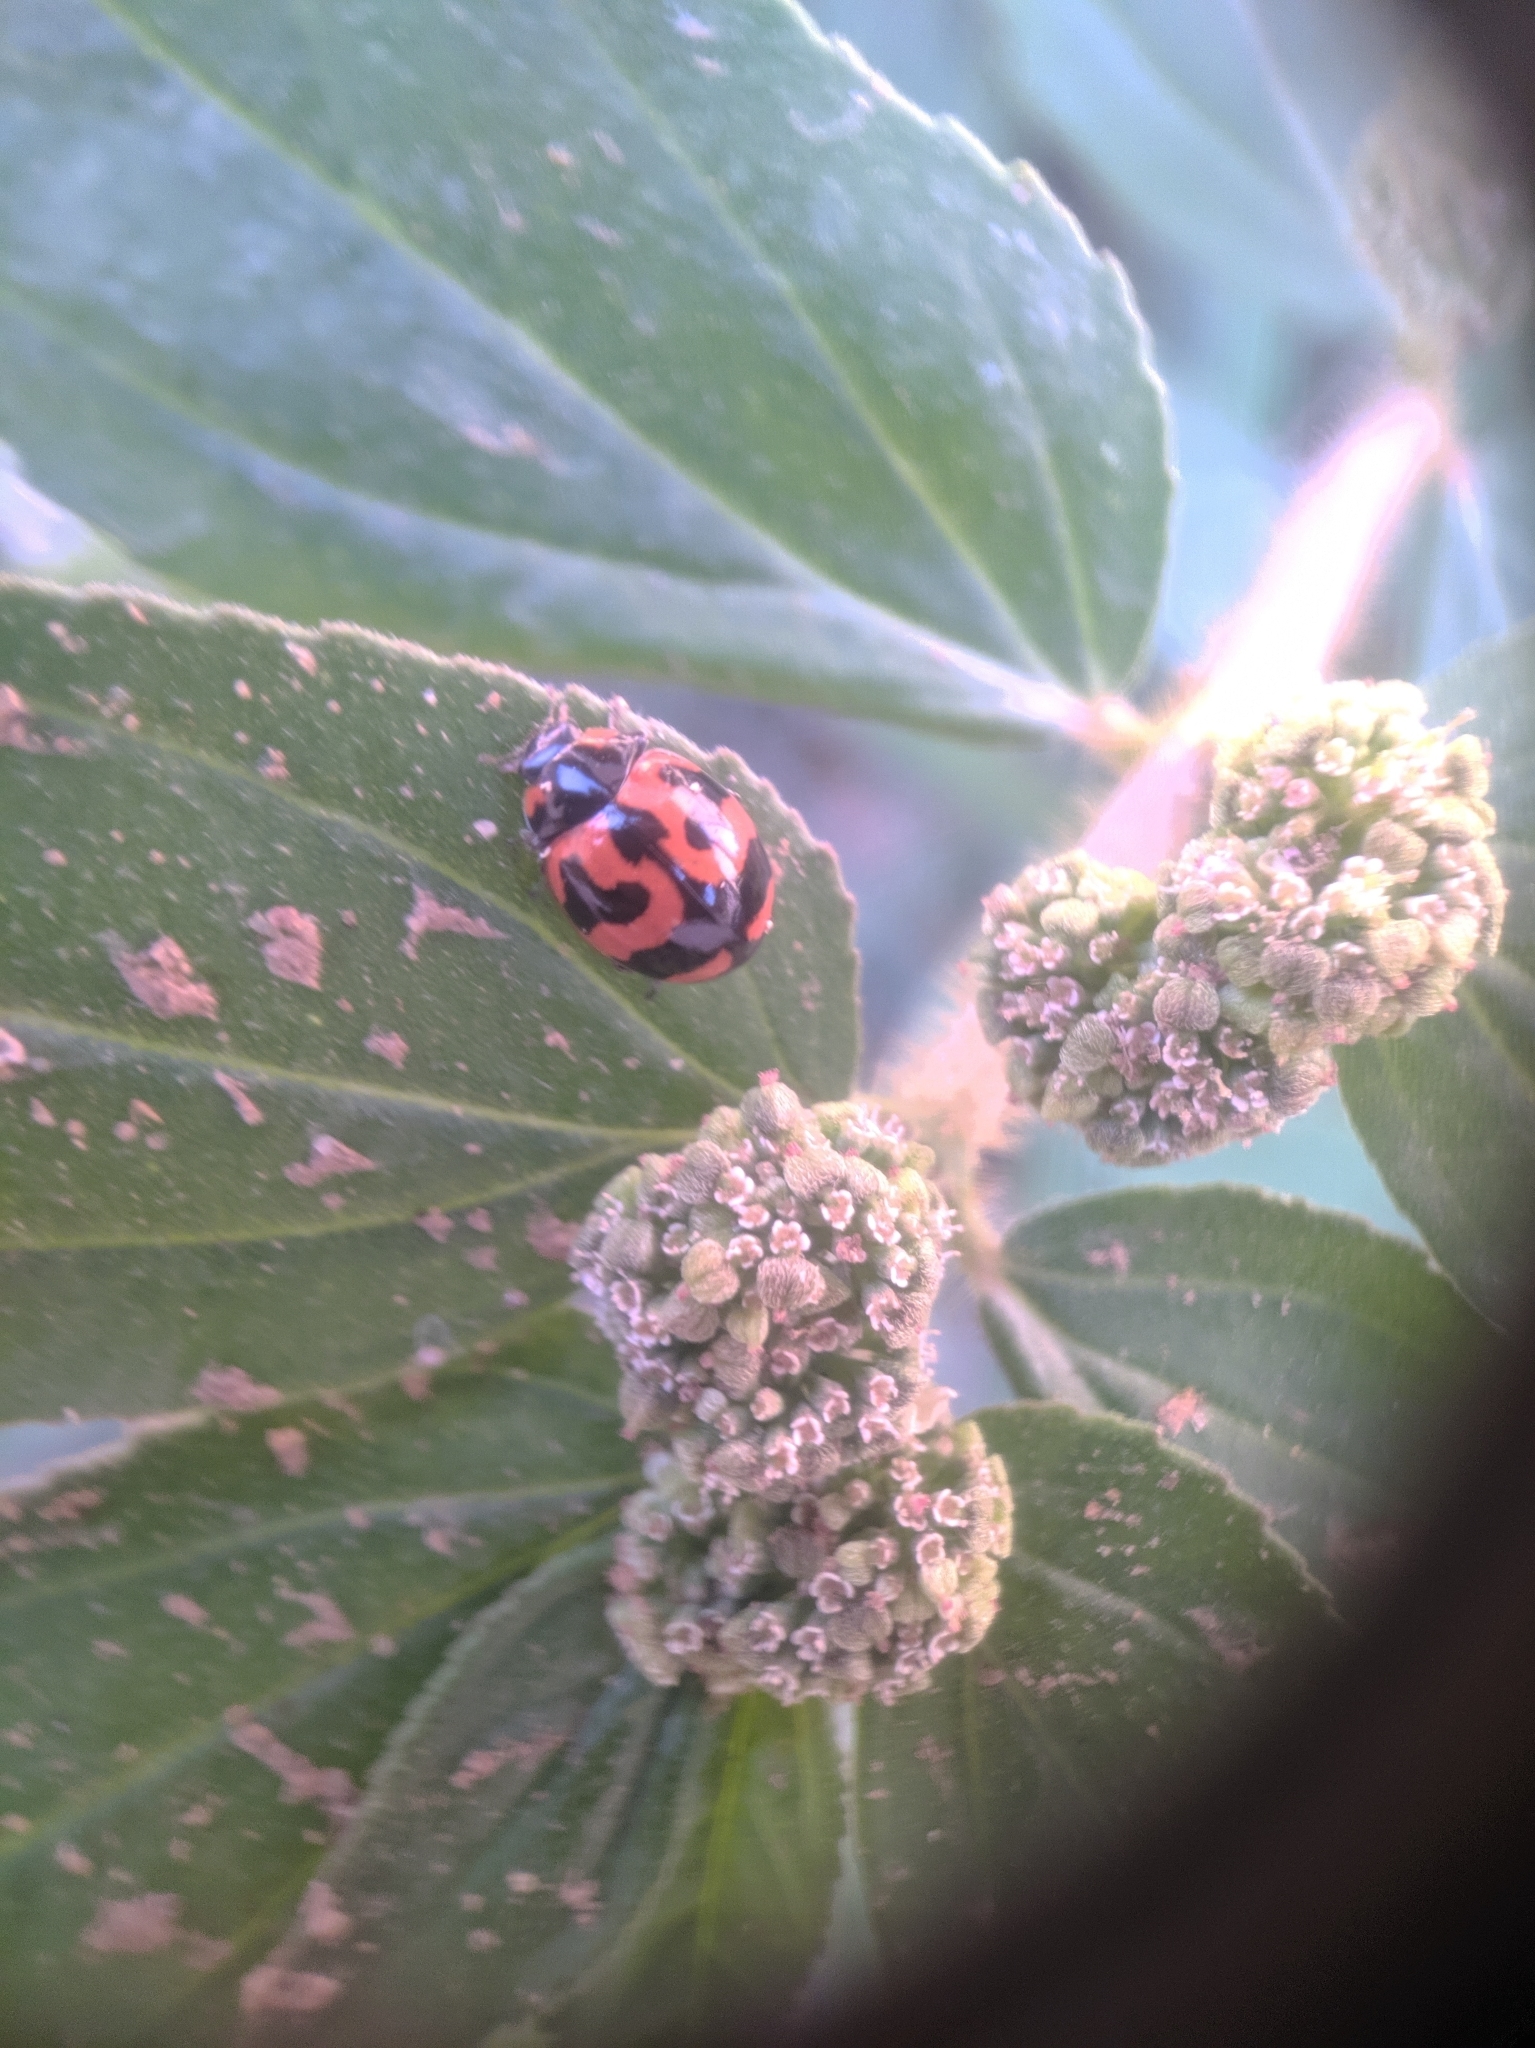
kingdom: Animalia
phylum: Arthropoda
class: Insecta
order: Coleoptera
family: Coccinellidae
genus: Coccinella
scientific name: Coccinella transversalis
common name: Transverse lady beetle
